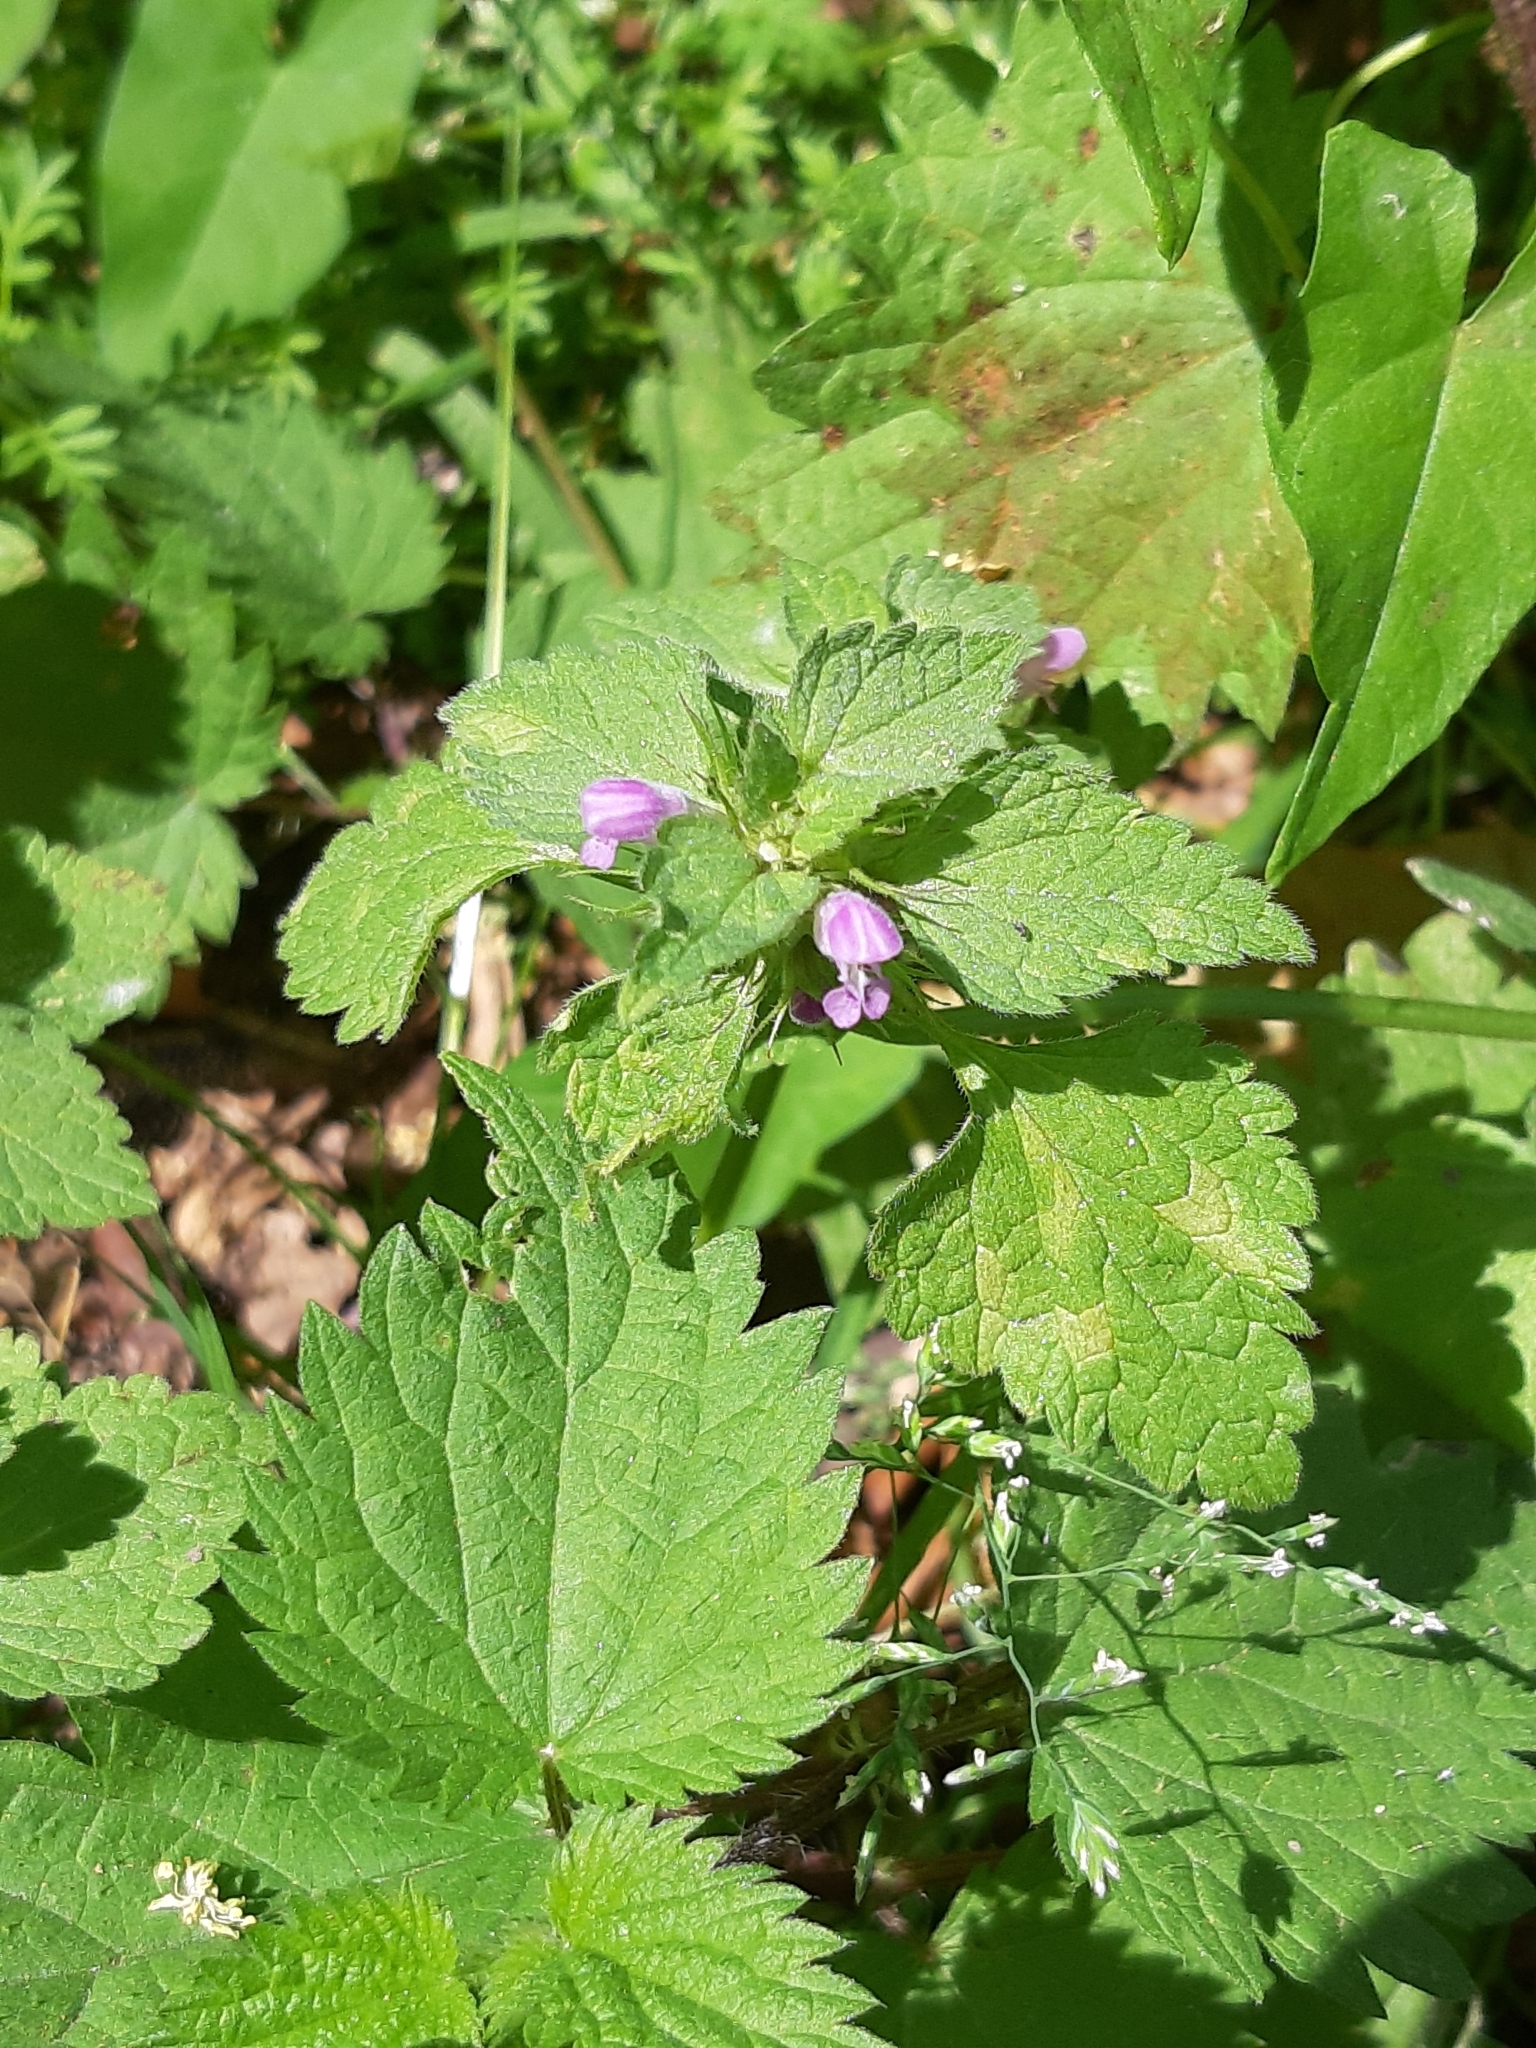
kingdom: Plantae
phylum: Tracheophyta
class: Magnoliopsida
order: Lamiales
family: Lamiaceae
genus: Lamium
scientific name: Lamium purpureum
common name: Red dead-nettle
